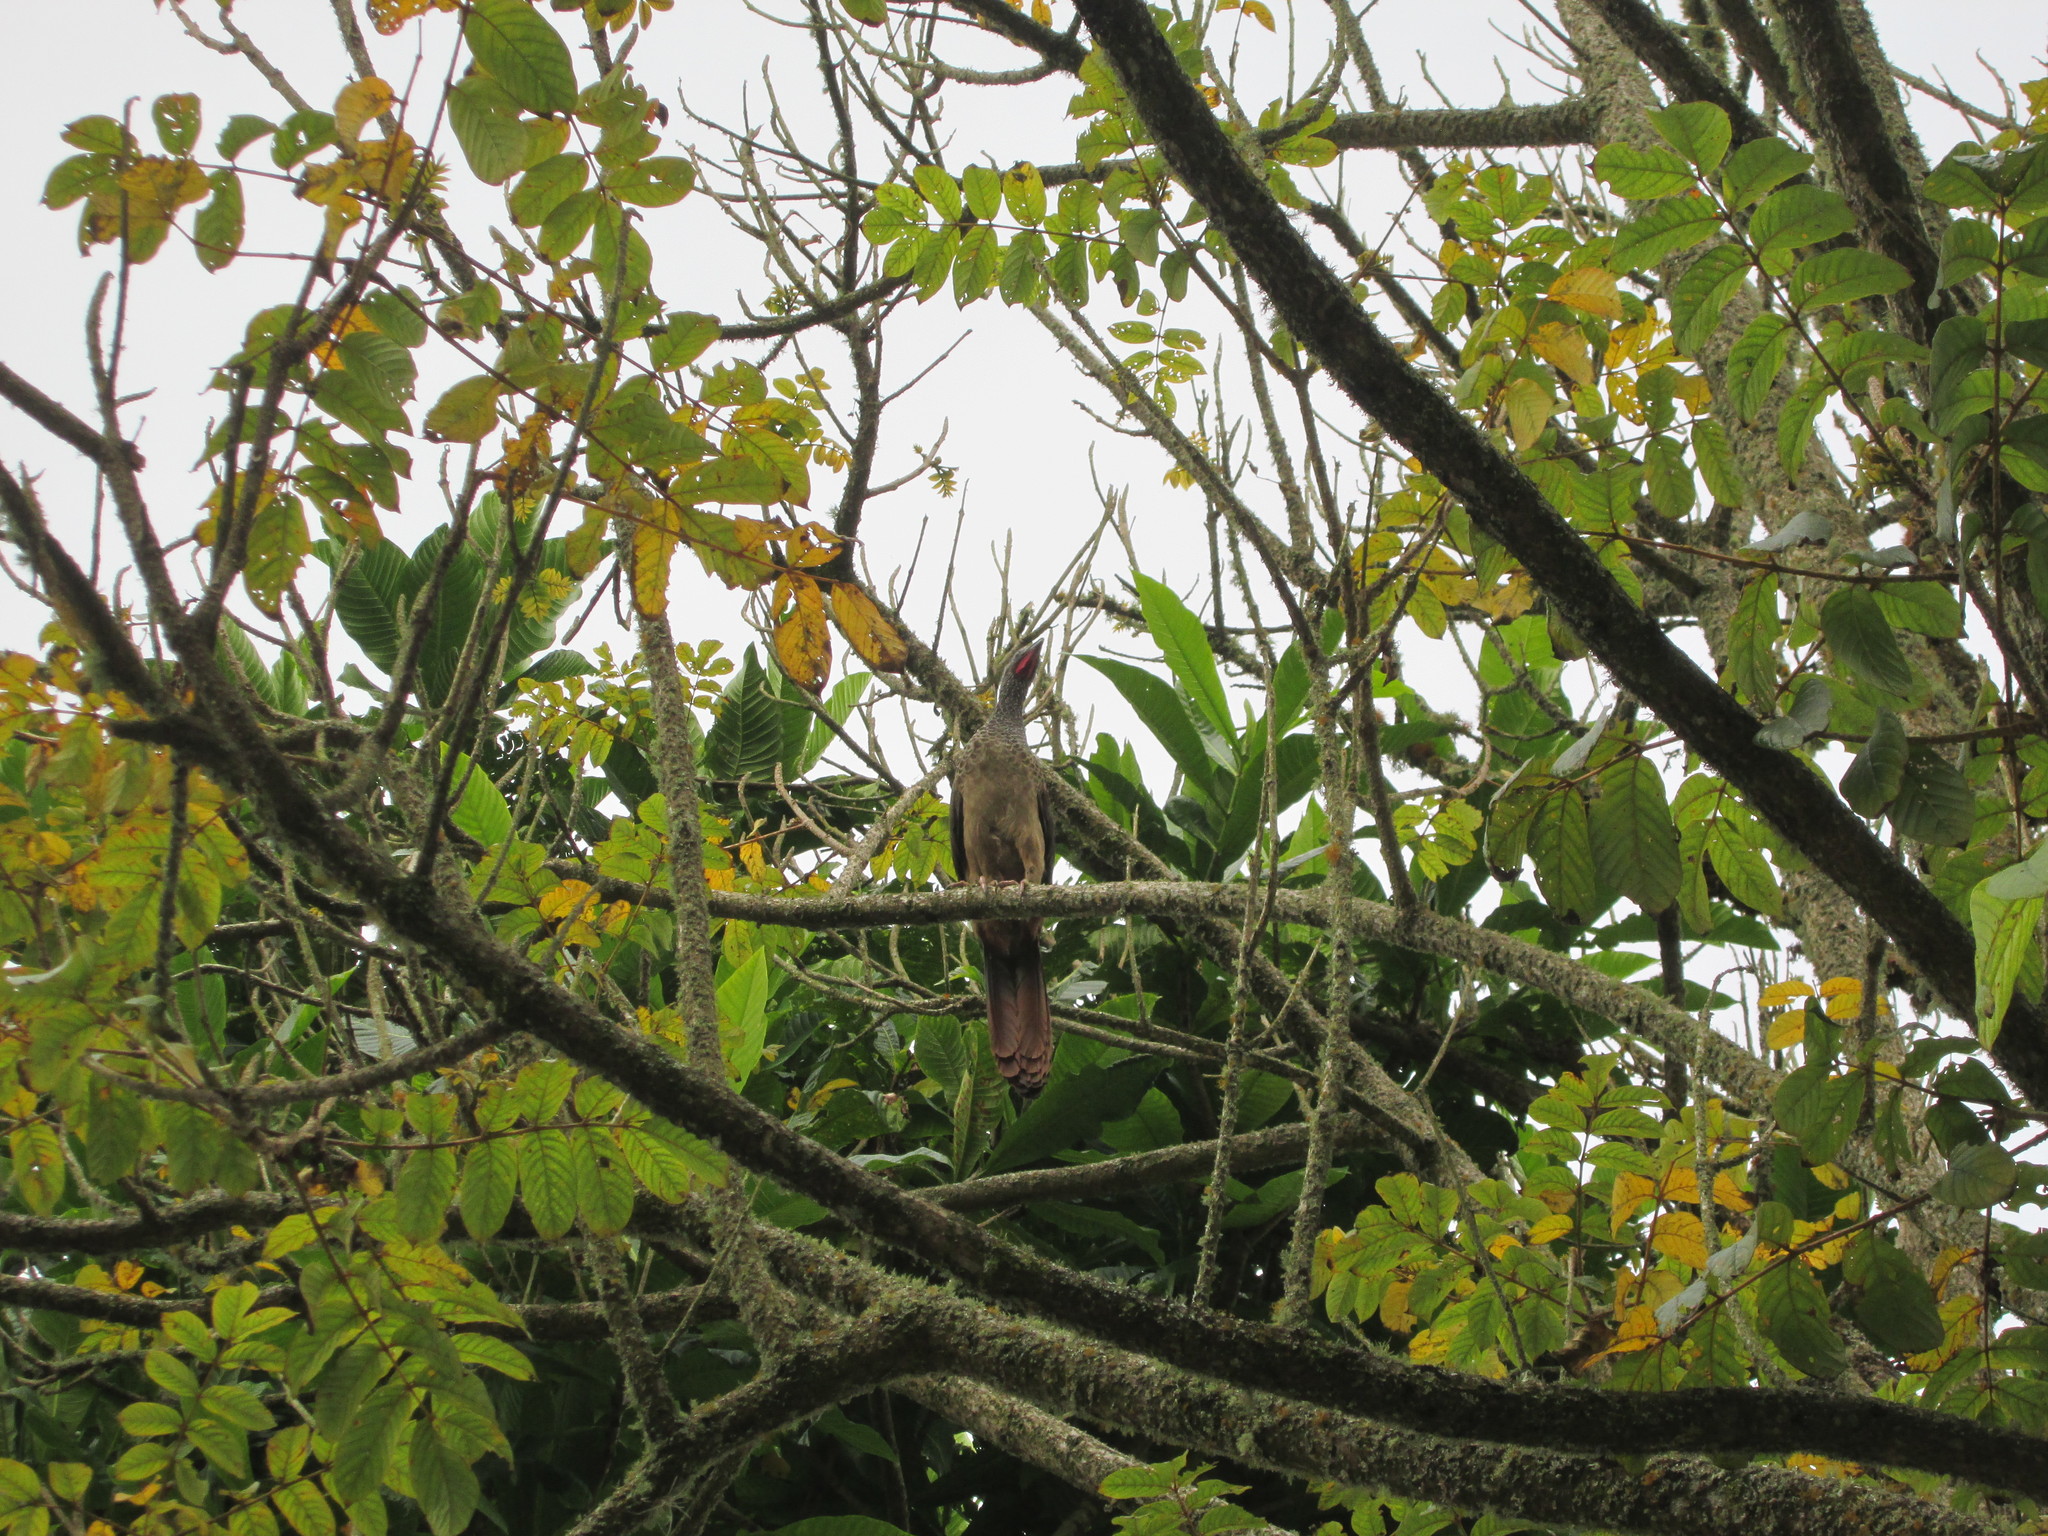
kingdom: Animalia
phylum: Chordata
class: Aves
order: Galliformes
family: Cracidae
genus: Ortalis
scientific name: Ortalis columbiana
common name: Colombian chachalaca
